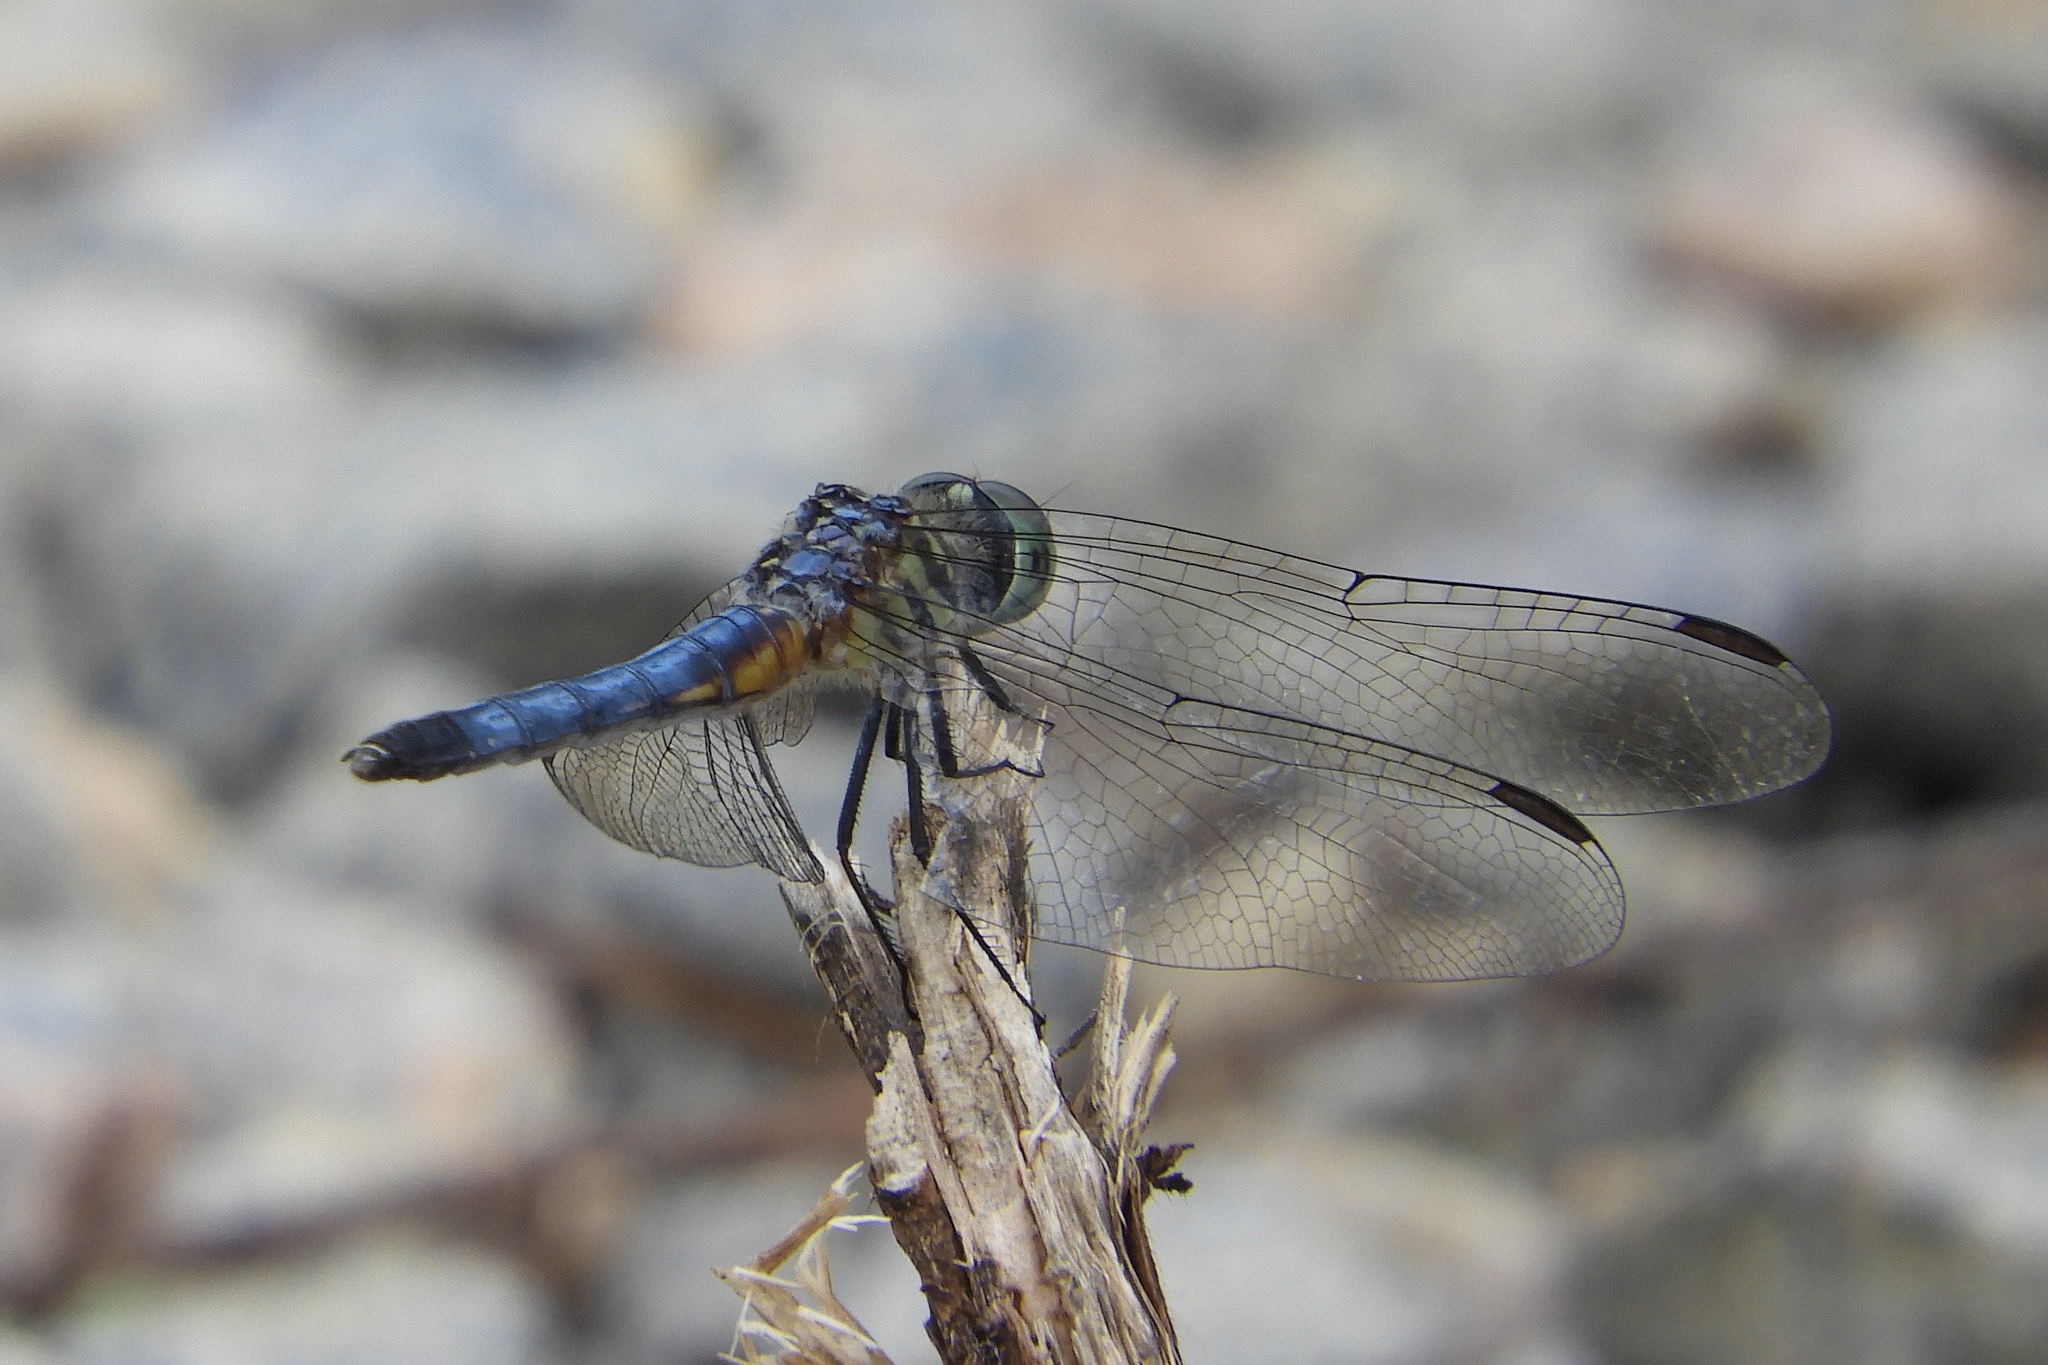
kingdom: Animalia
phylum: Arthropoda
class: Insecta
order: Odonata
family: Libellulidae
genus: Pachydiplax
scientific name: Pachydiplax longipennis
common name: Blue dasher
